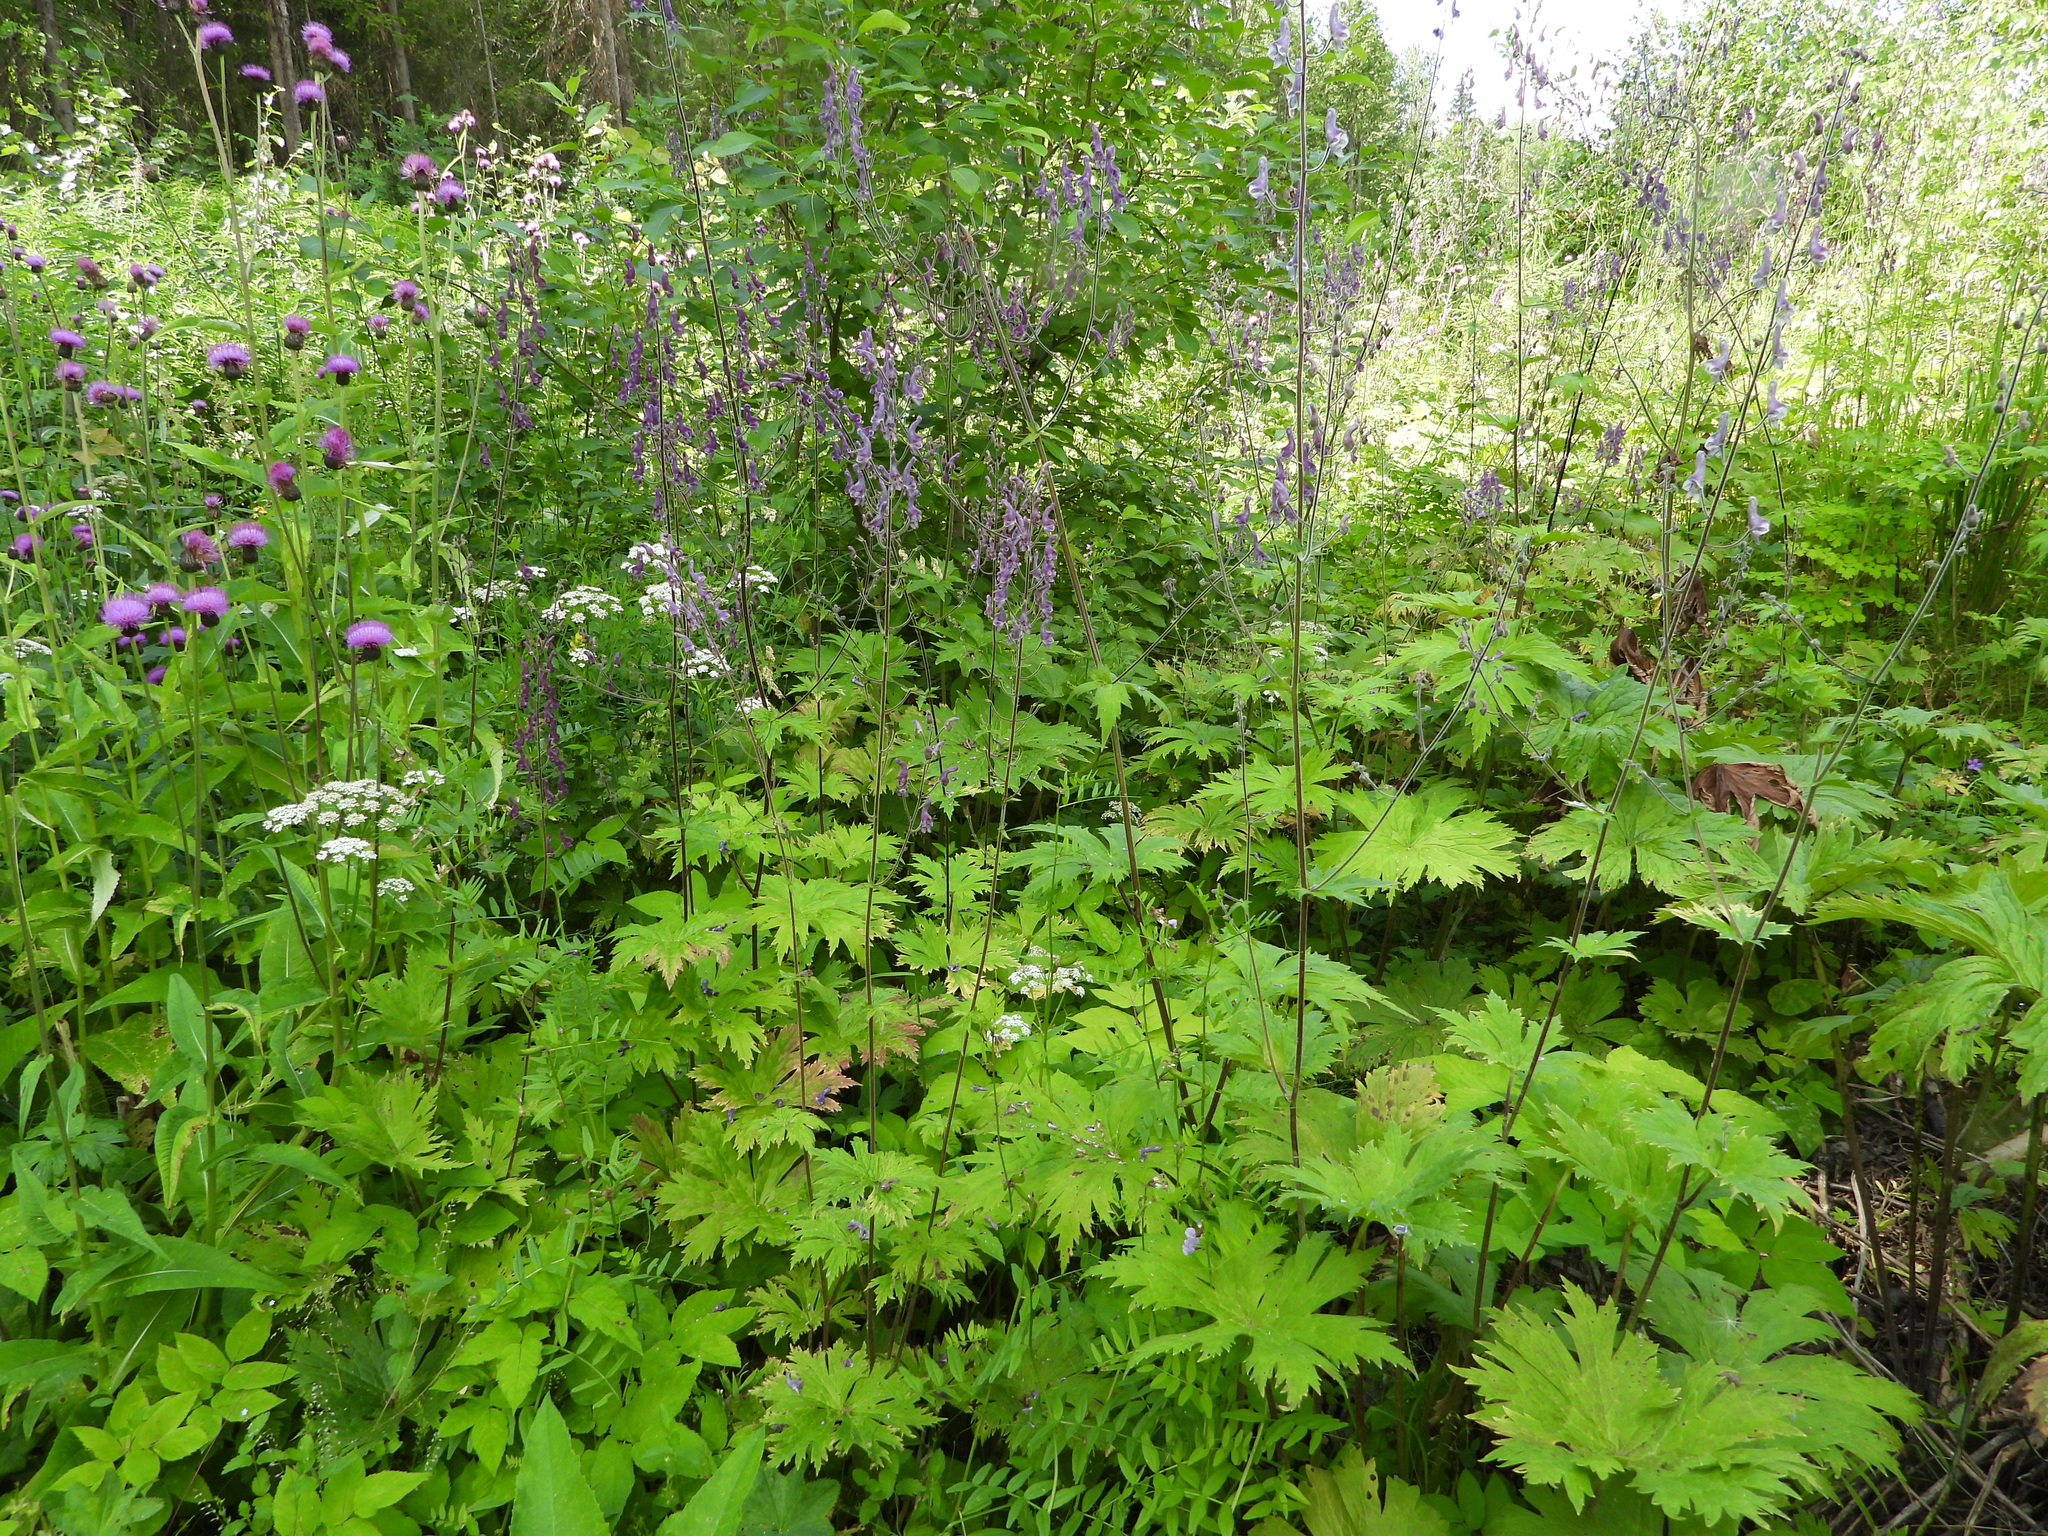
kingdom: Plantae
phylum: Tracheophyta
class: Magnoliopsida
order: Ranunculales
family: Ranunculaceae
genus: Aconitum
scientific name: Aconitum septentrionale
